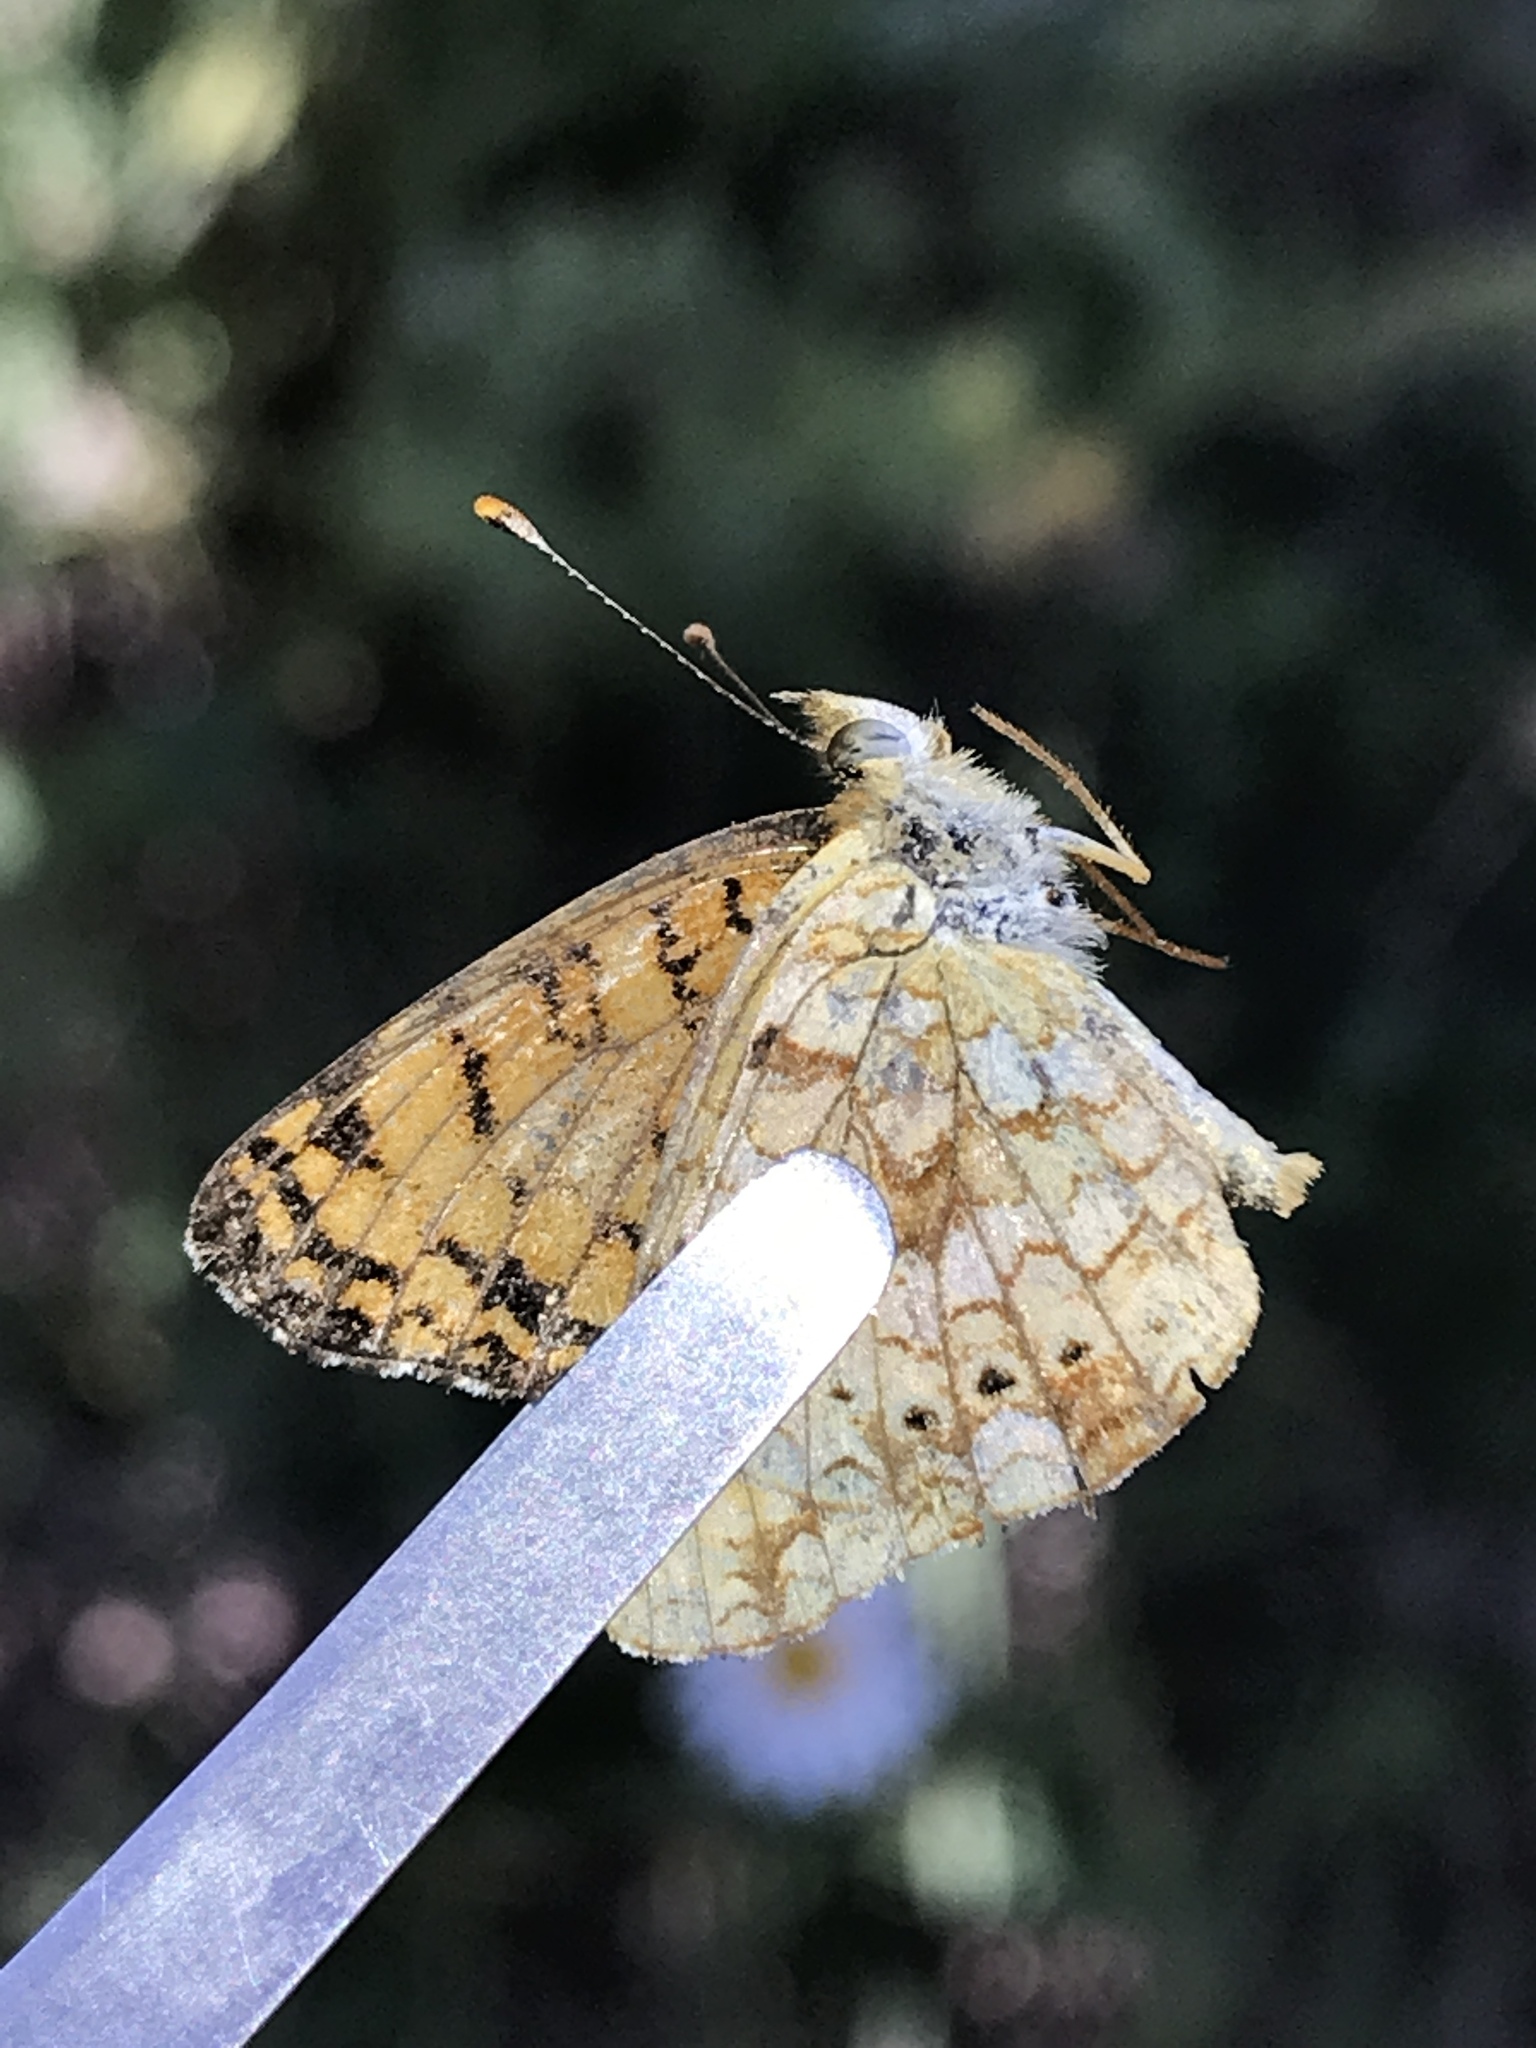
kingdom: Animalia
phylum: Arthropoda
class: Insecta
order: Lepidoptera
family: Nymphalidae
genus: Eresia
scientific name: Eresia aveyrona
